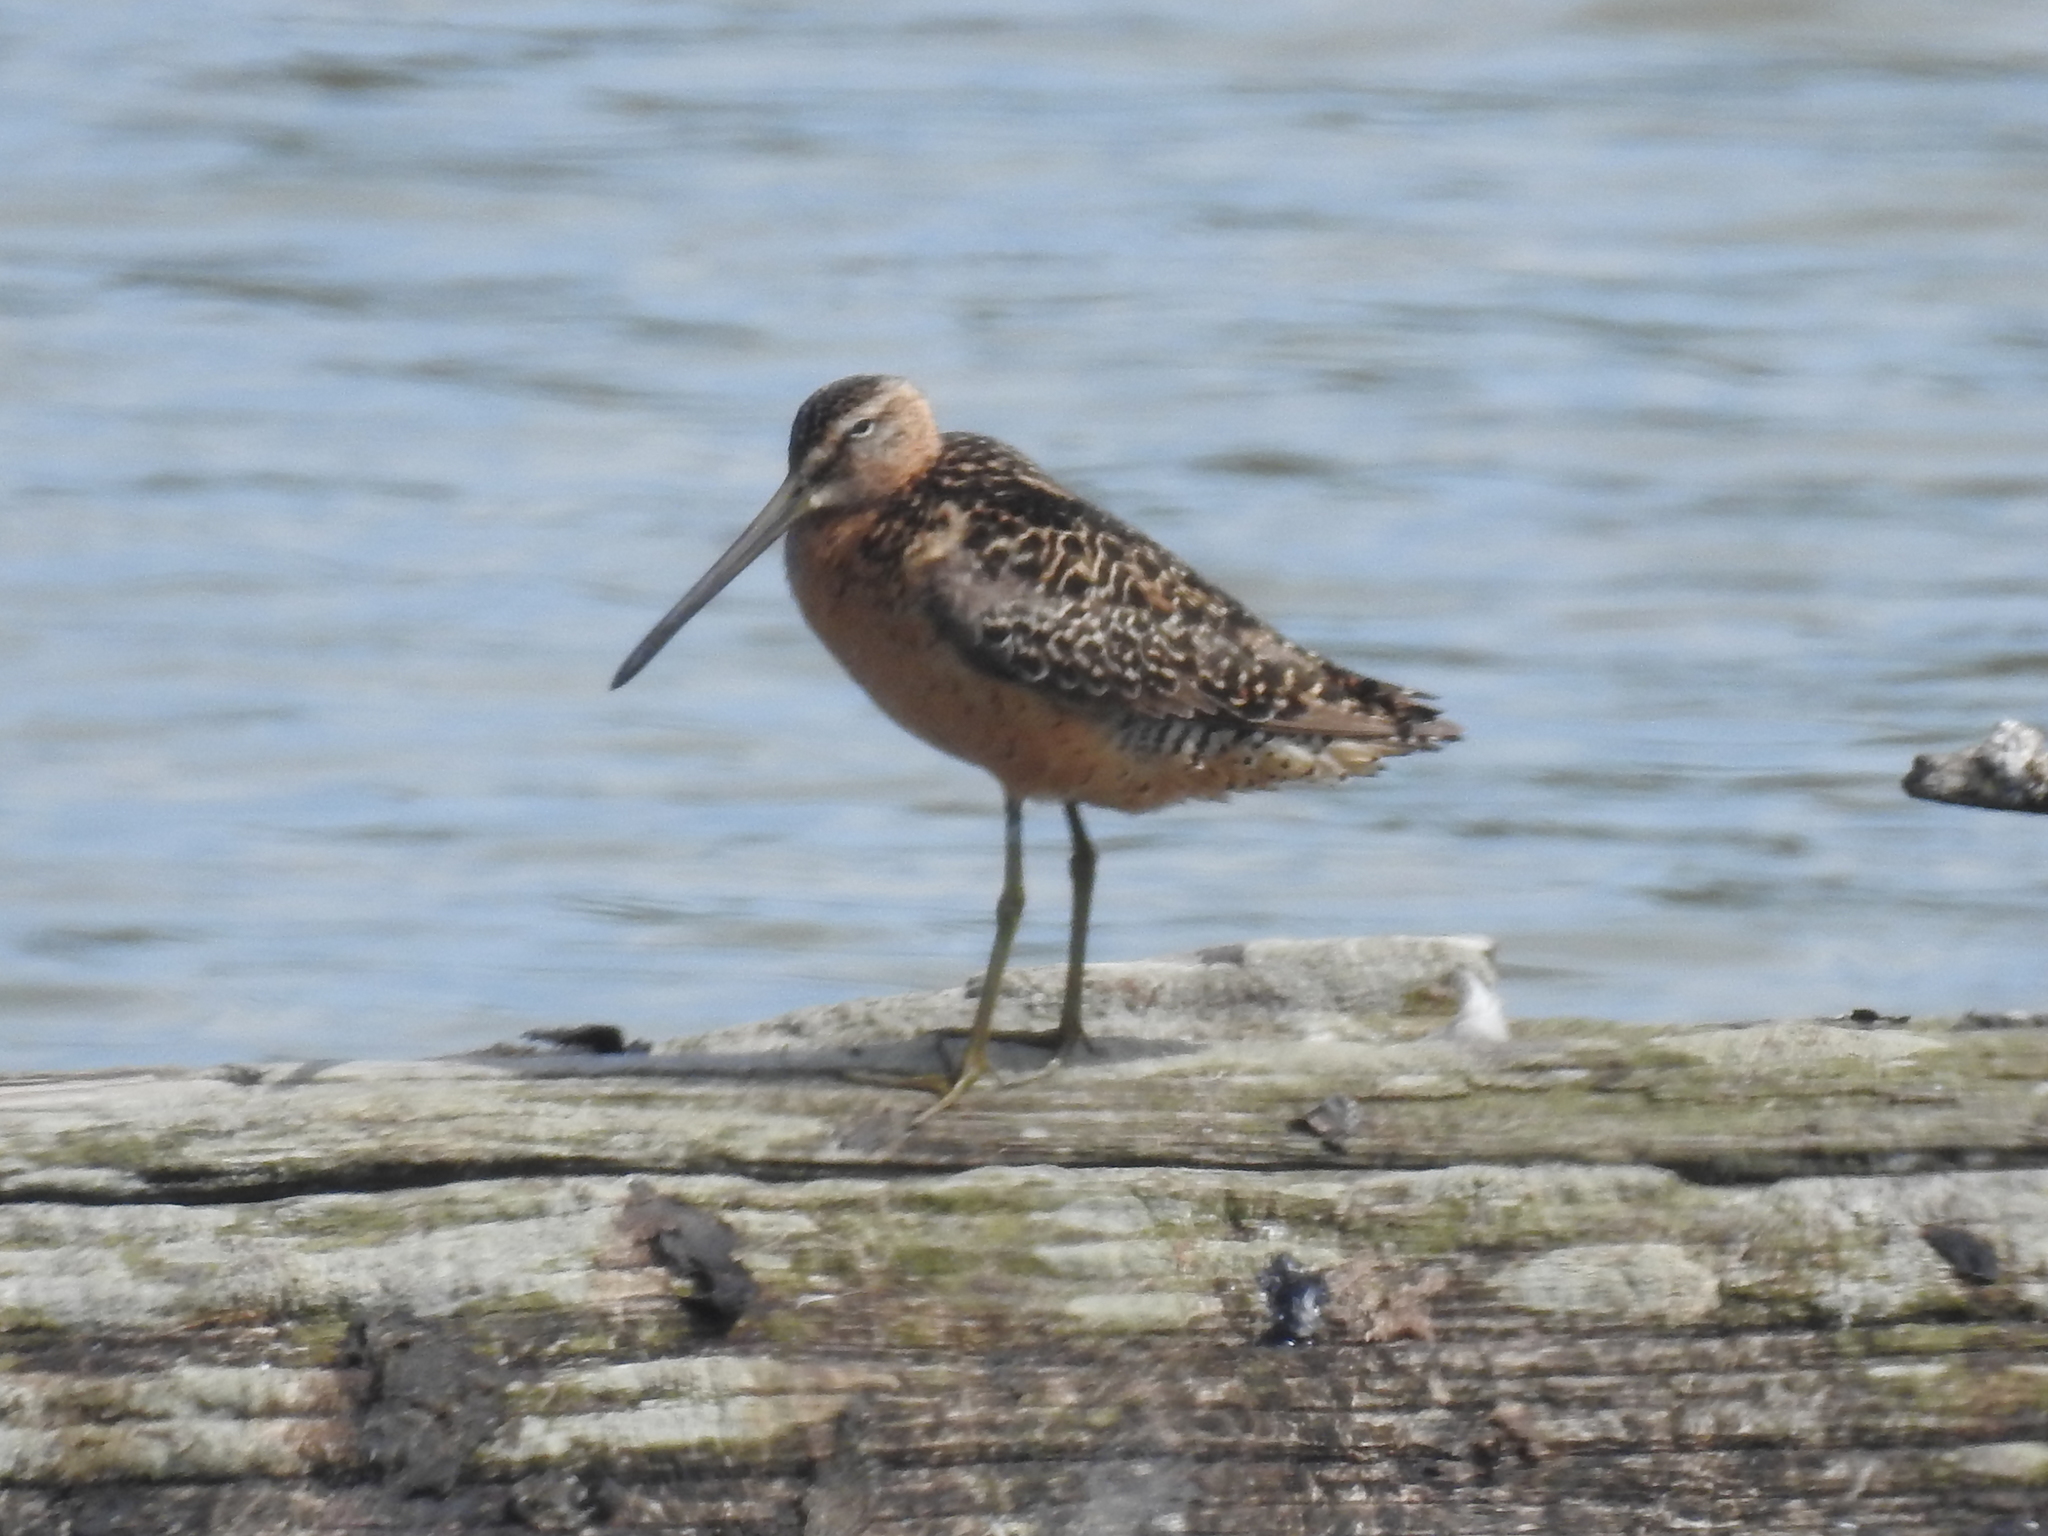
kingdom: Animalia
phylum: Chordata
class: Aves
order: Charadriiformes
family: Scolopacidae
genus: Limnodromus
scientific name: Limnodromus scolopaceus
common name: Long-billed dowitcher
